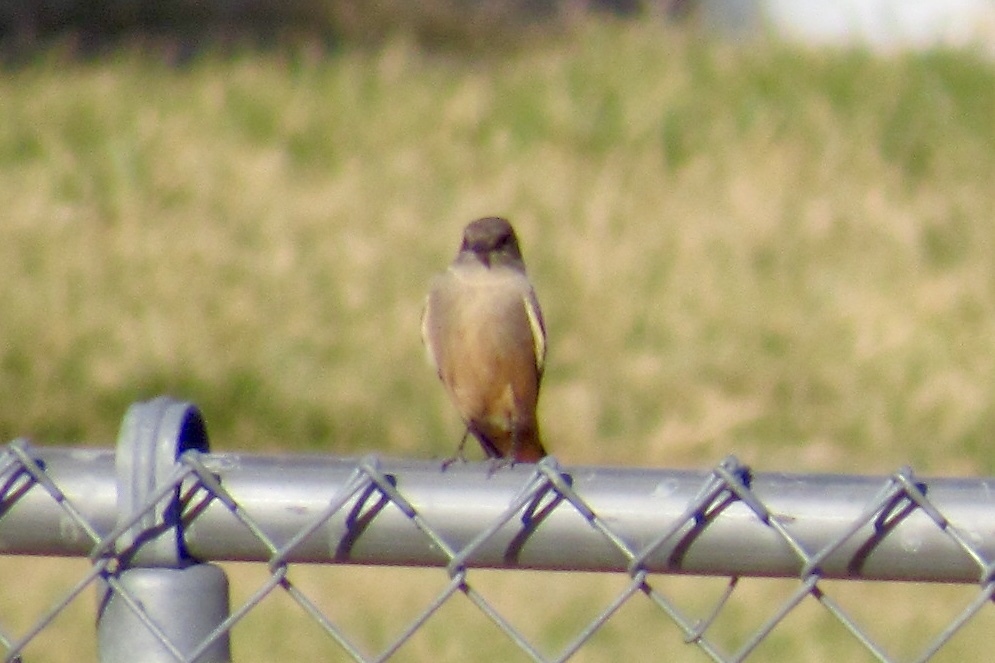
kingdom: Animalia
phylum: Chordata
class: Aves
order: Passeriformes
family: Tyrannidae
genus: Sayornis
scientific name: Sayornis saya
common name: Say's phoebe
